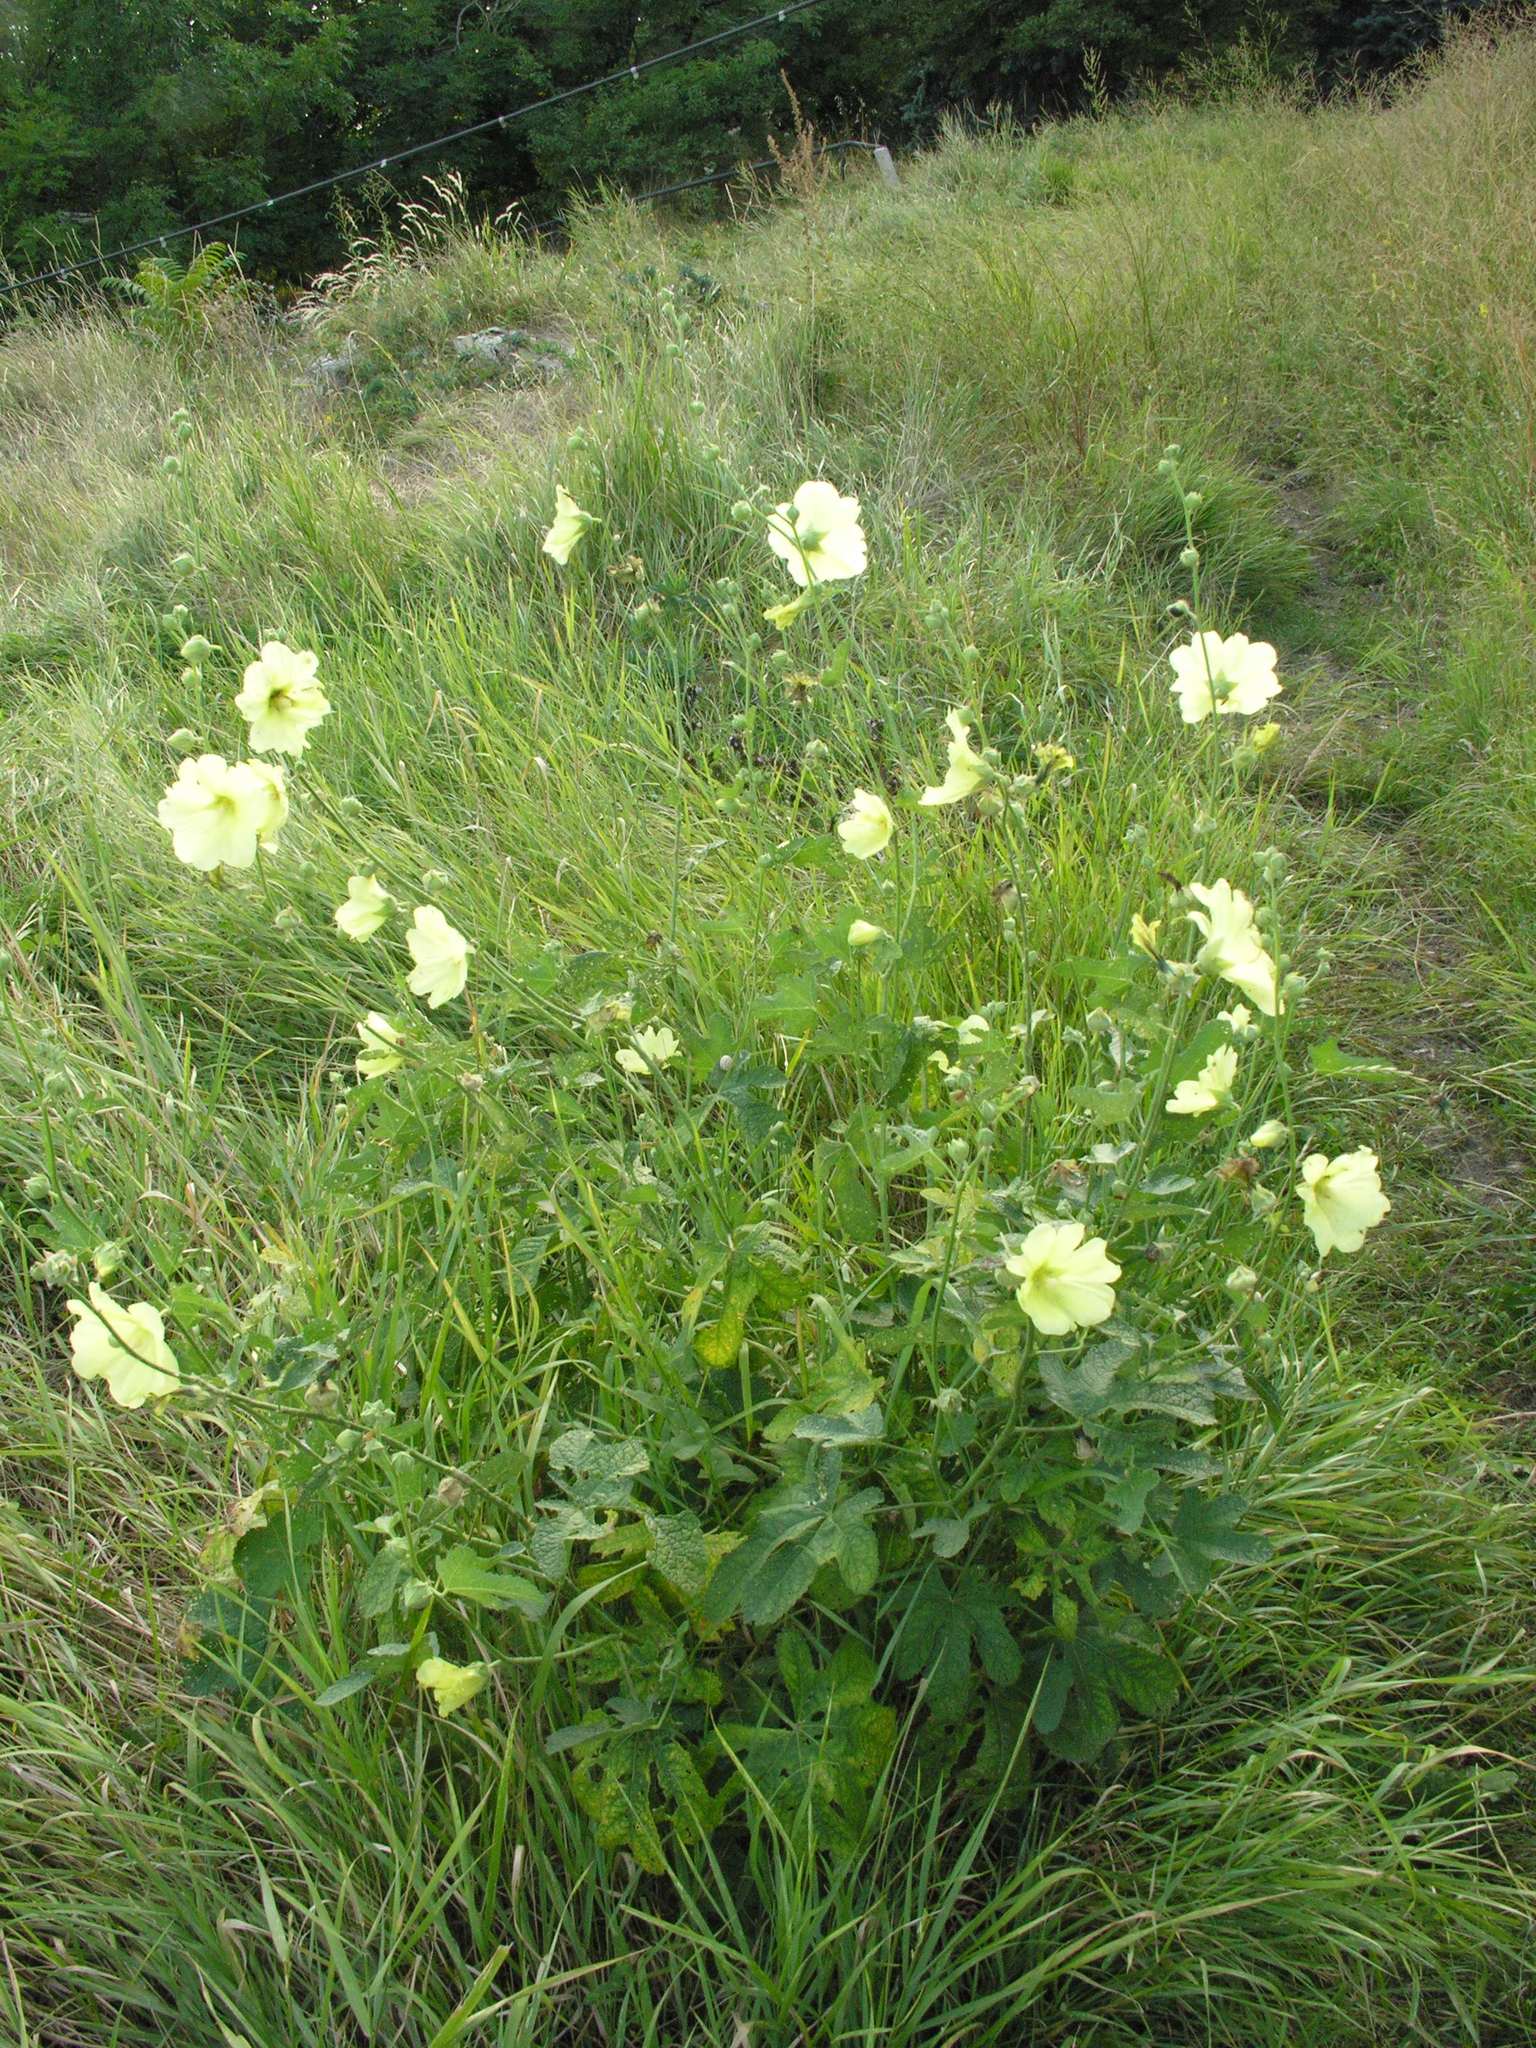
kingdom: Plantae
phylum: Tracheophyta
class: Magnoliopsida
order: Malvales
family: Malvaceae
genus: Alcea
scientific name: Alcea rugosa
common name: Russian hollyhock
